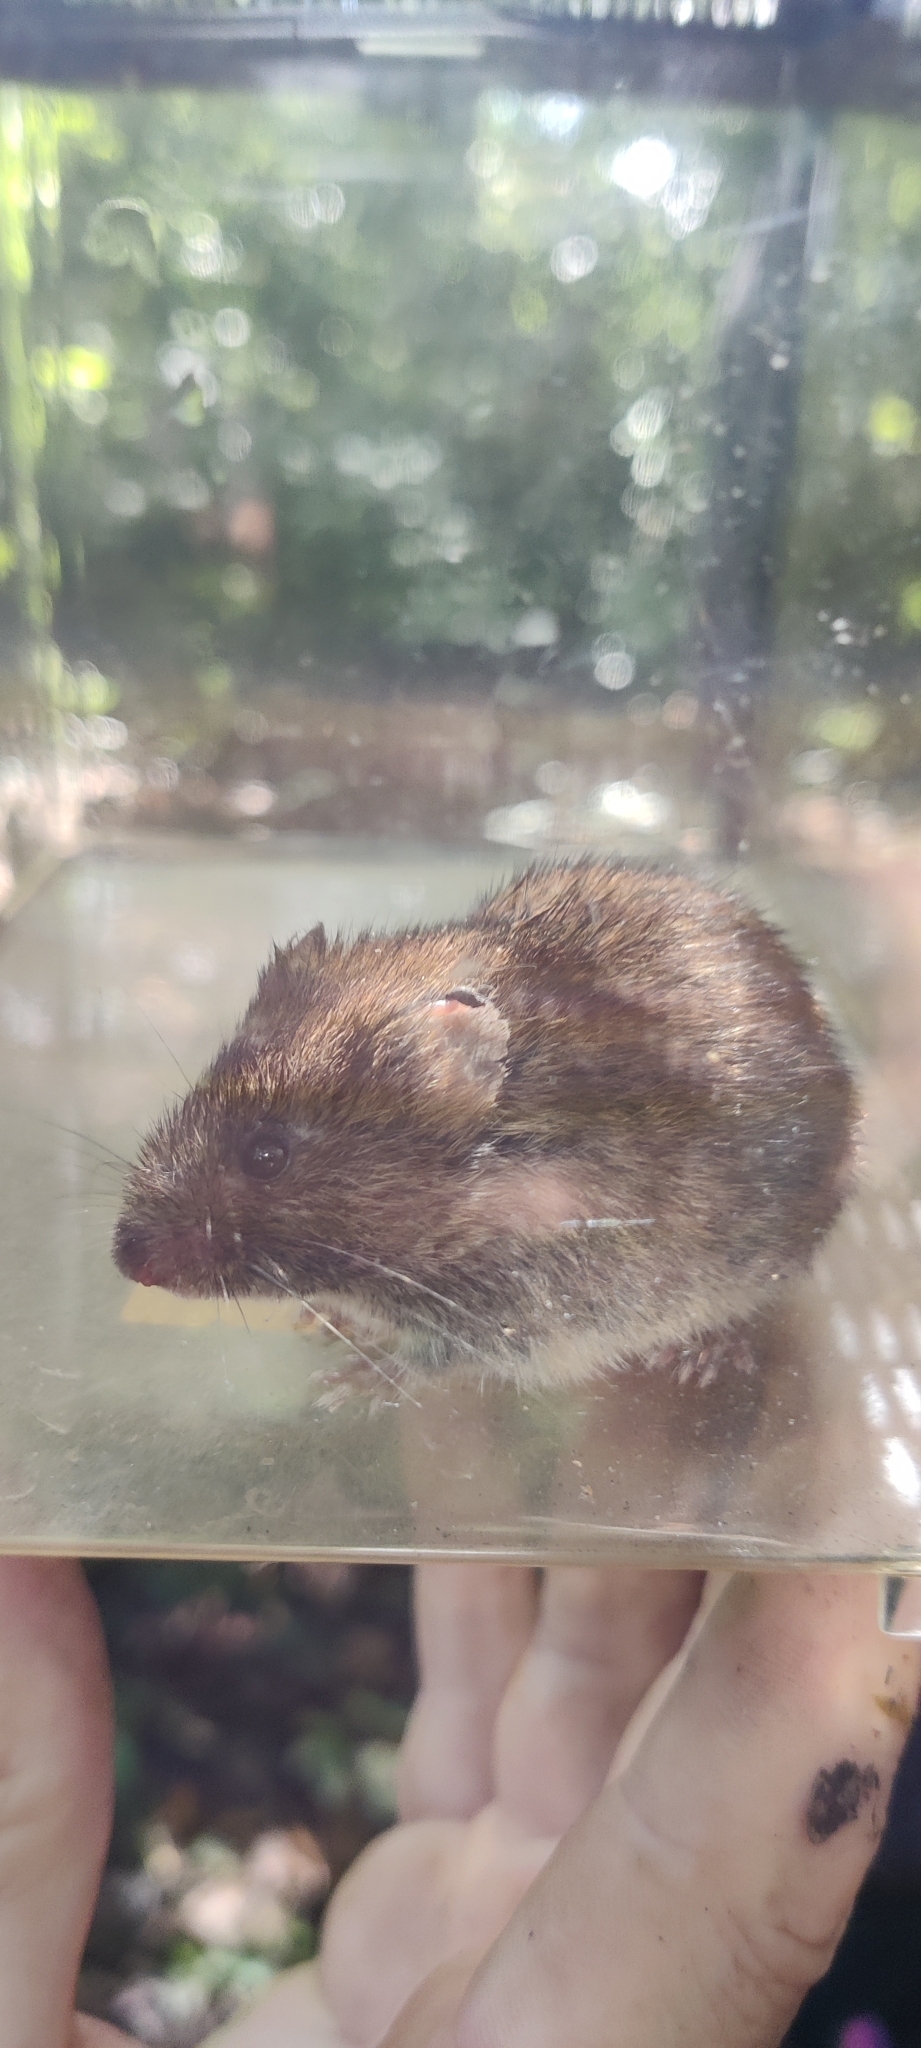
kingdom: Animalia
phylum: Chordata
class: Mammalia
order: Rodentia
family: Cricetidae
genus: Microtus
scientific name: Microtus agrestis
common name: Field vole
